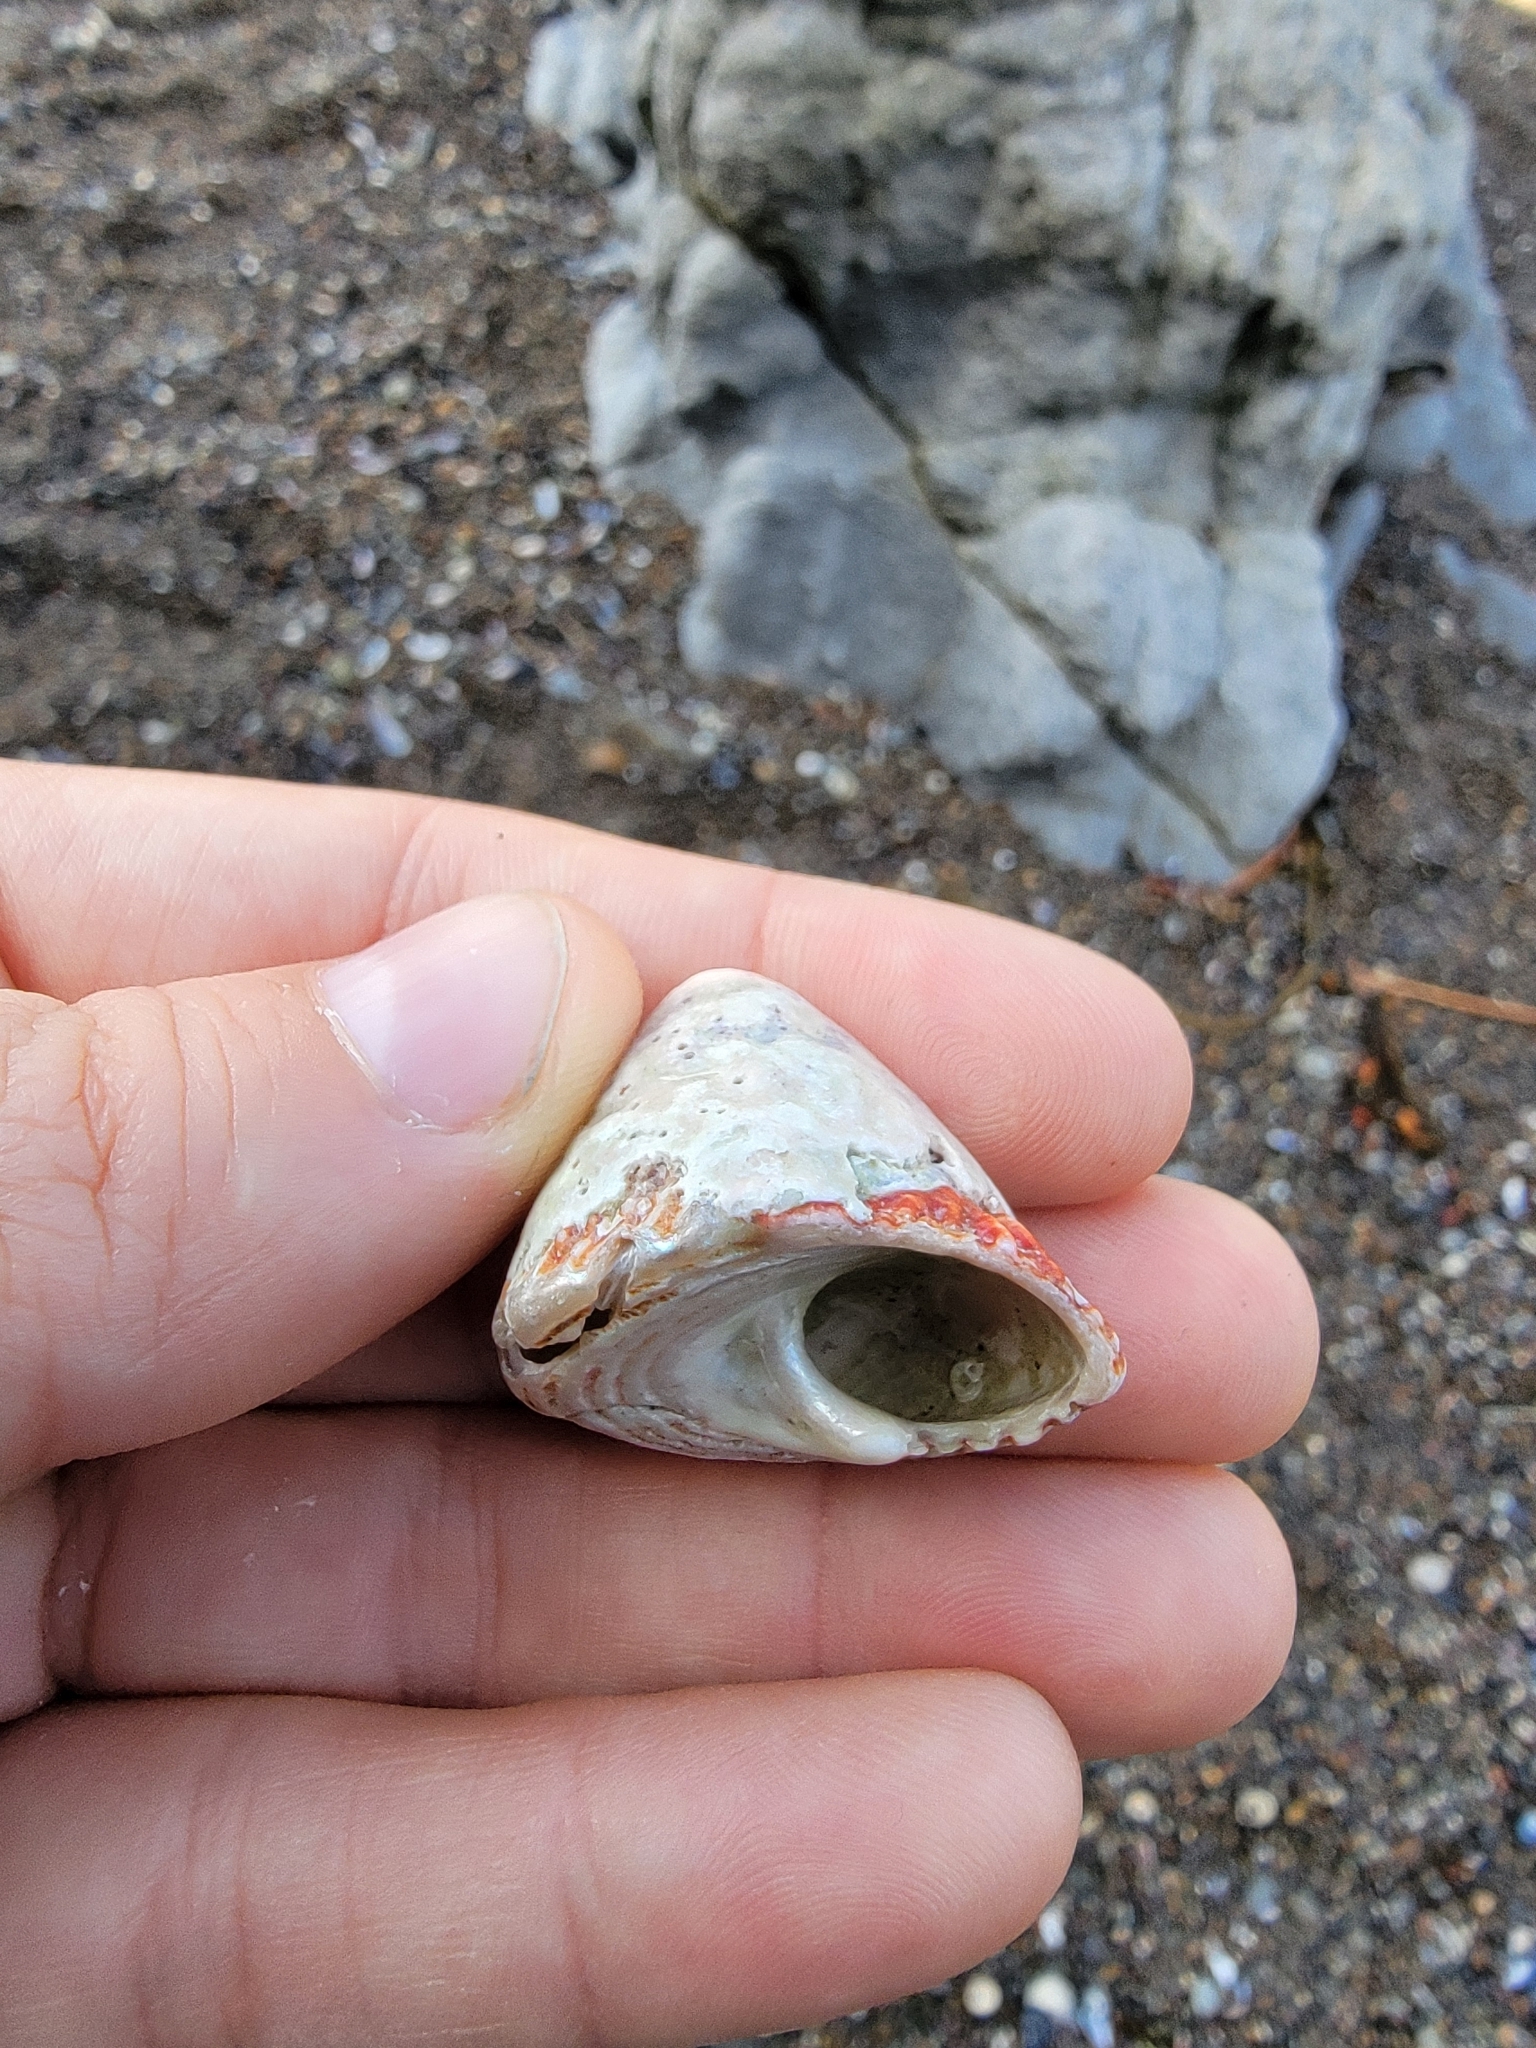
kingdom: Animalia
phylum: Mollusca
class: Gastropoda
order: Trochida
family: Turbinidae
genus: Pomaulax
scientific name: Pomaulax gibberosus
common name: Red turban
